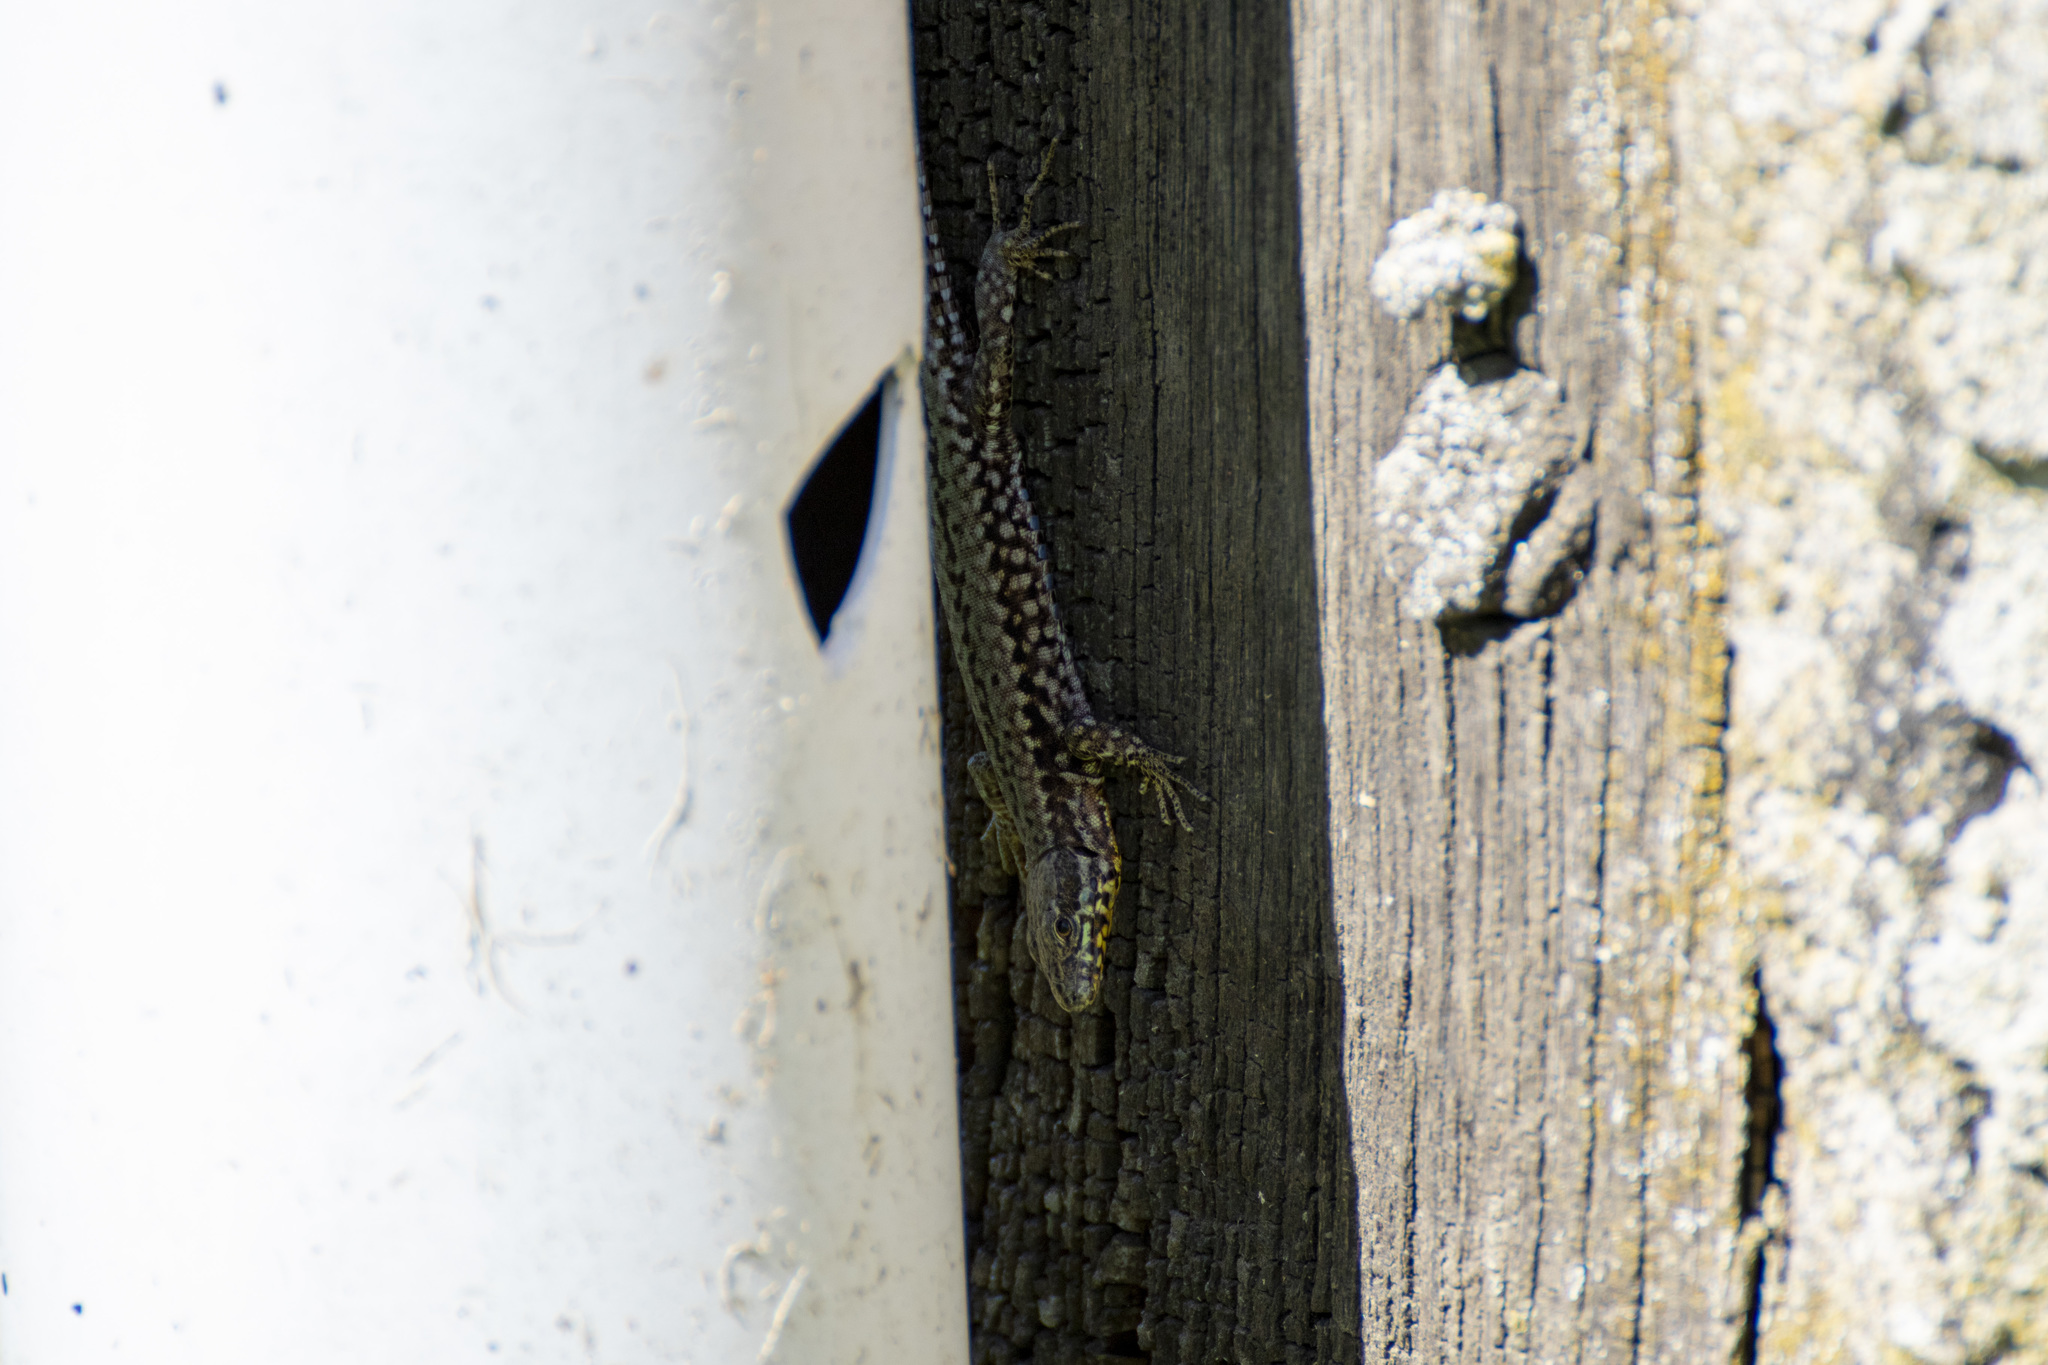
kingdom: Animalia
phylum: Chordata
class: Squamata
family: Lacertidae
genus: Podarcis
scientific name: Podarcis muralis
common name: Common wall lizard
